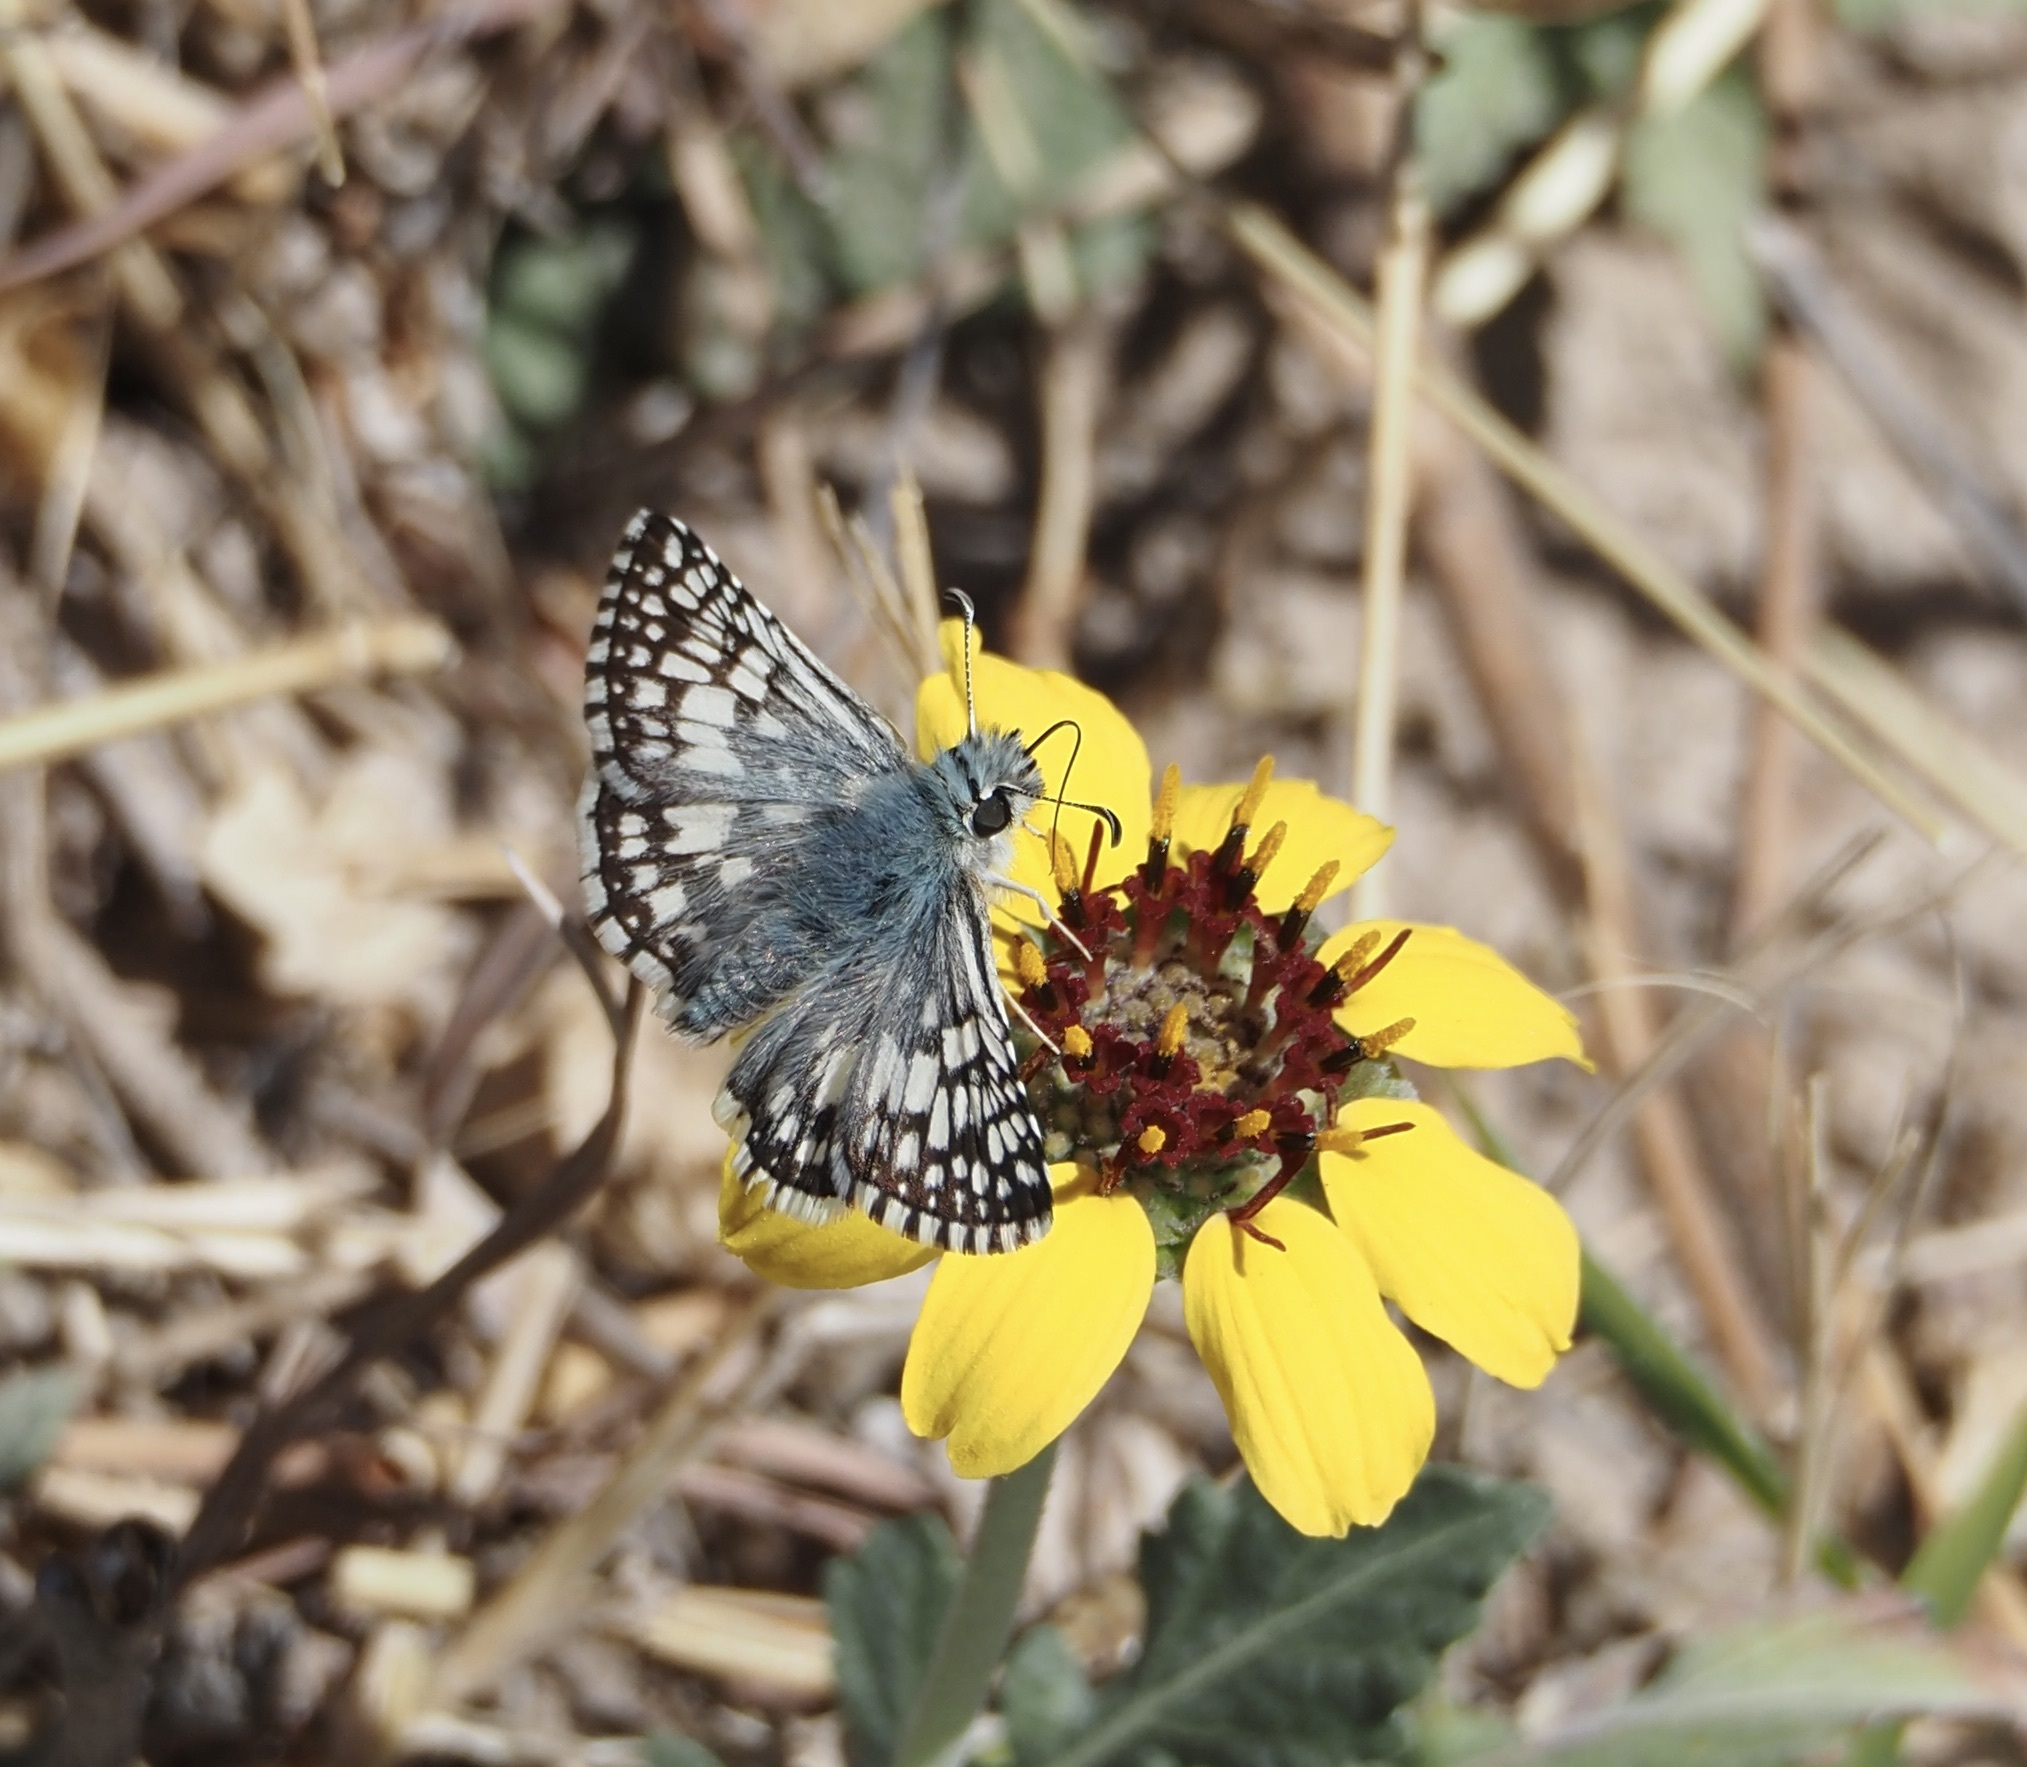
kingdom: Animalia
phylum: Arthropoda
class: Insecta
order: Lepidoptera
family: Hesperiidae
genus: Burnsius
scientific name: Burnsius
